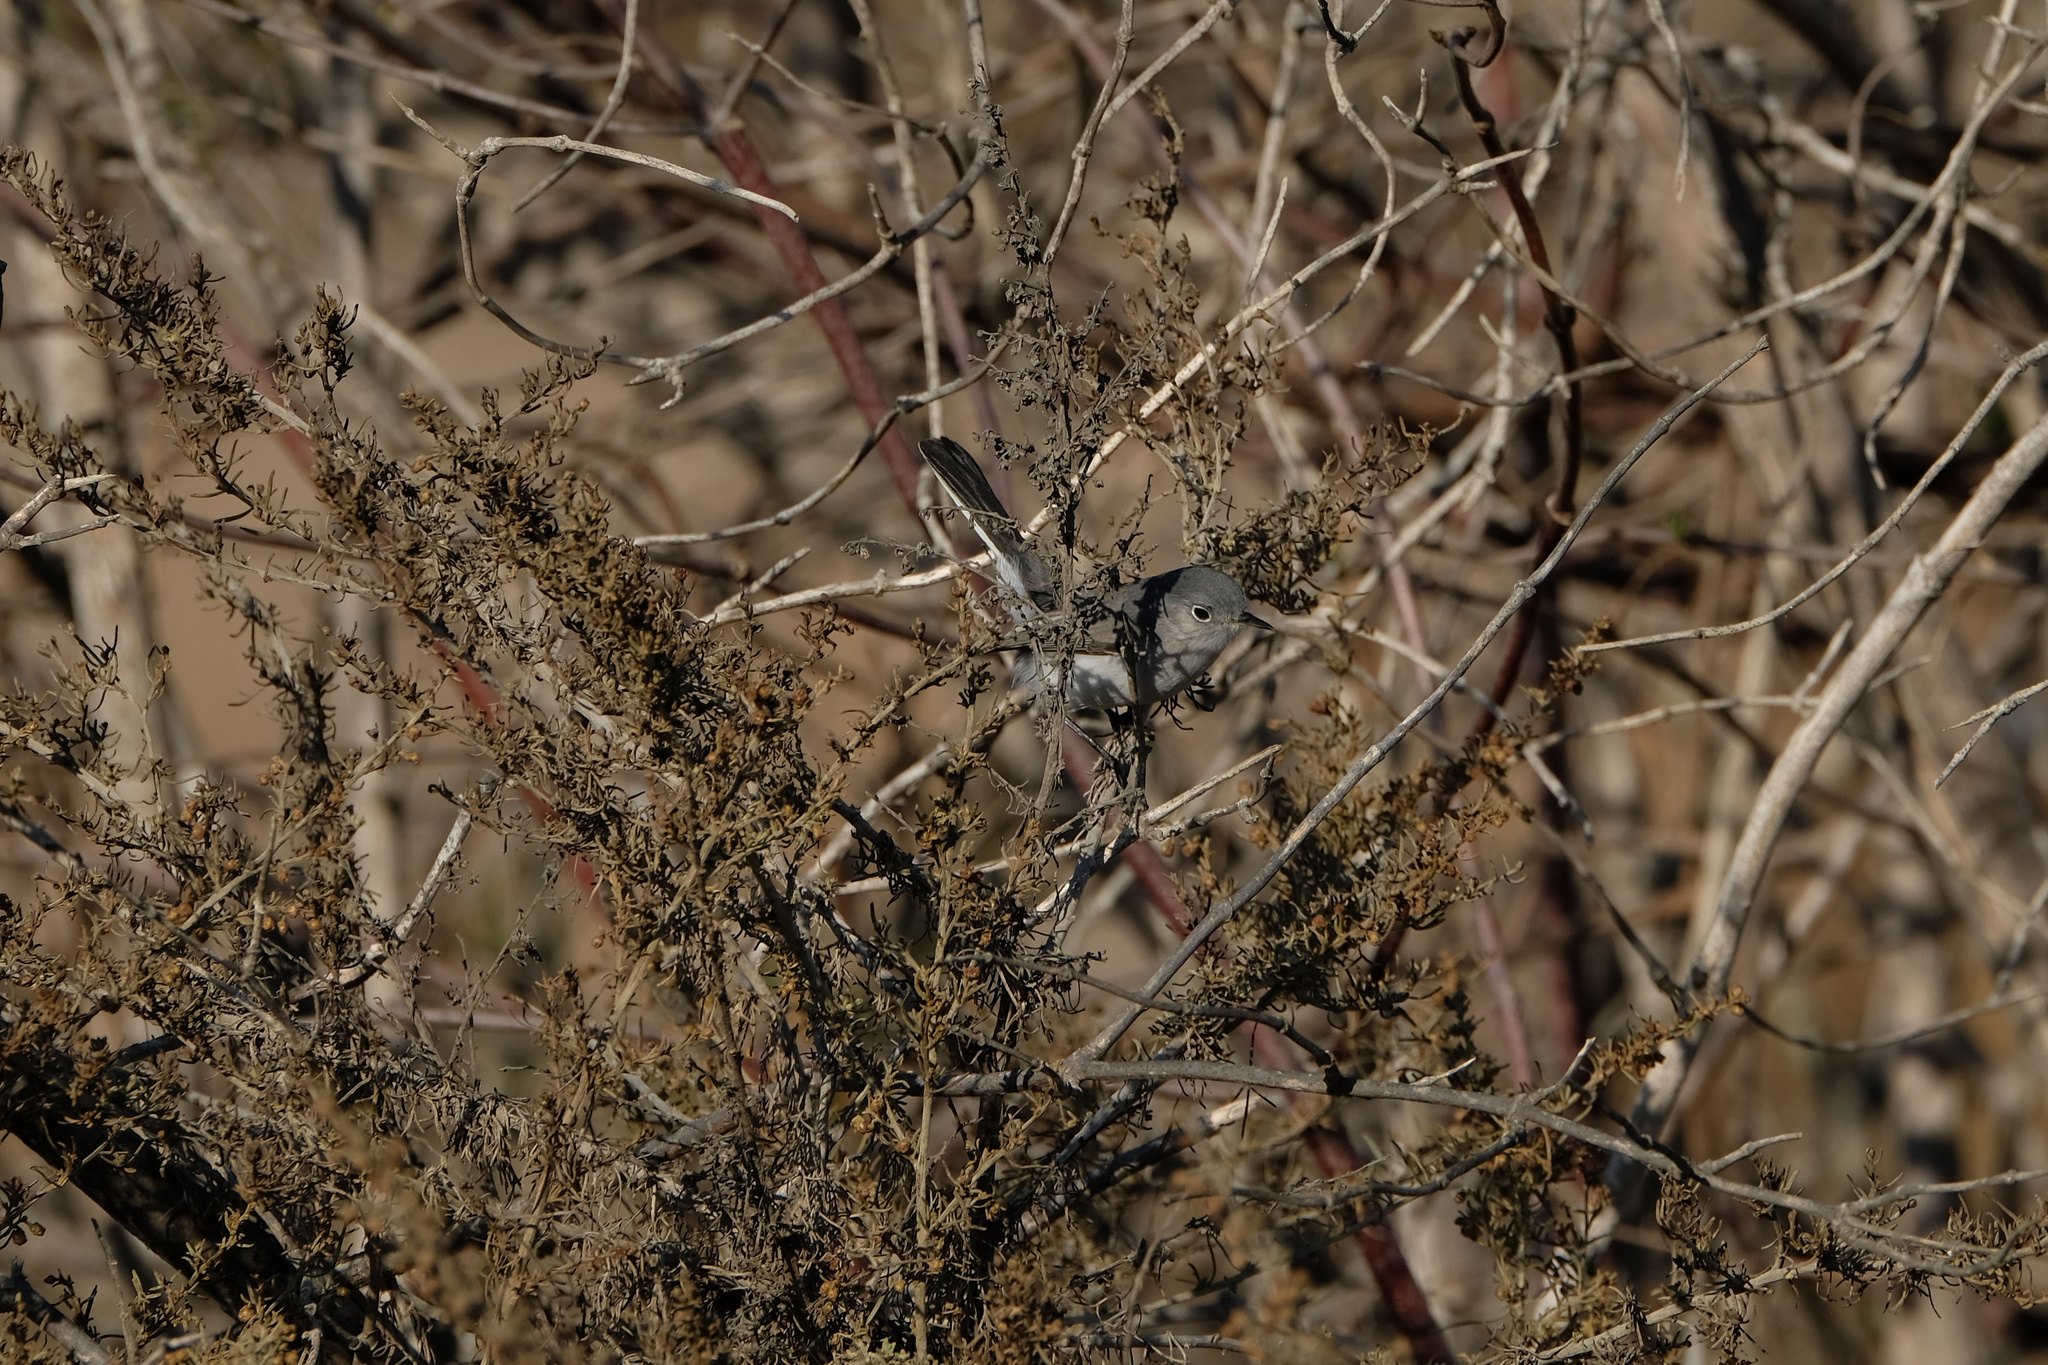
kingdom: Animalia
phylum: Chordata
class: Aves
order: Passeriformes
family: Polioptilidae
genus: Polioptila
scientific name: Polioptila caerulea
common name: Blue-gray gnatcatcher
